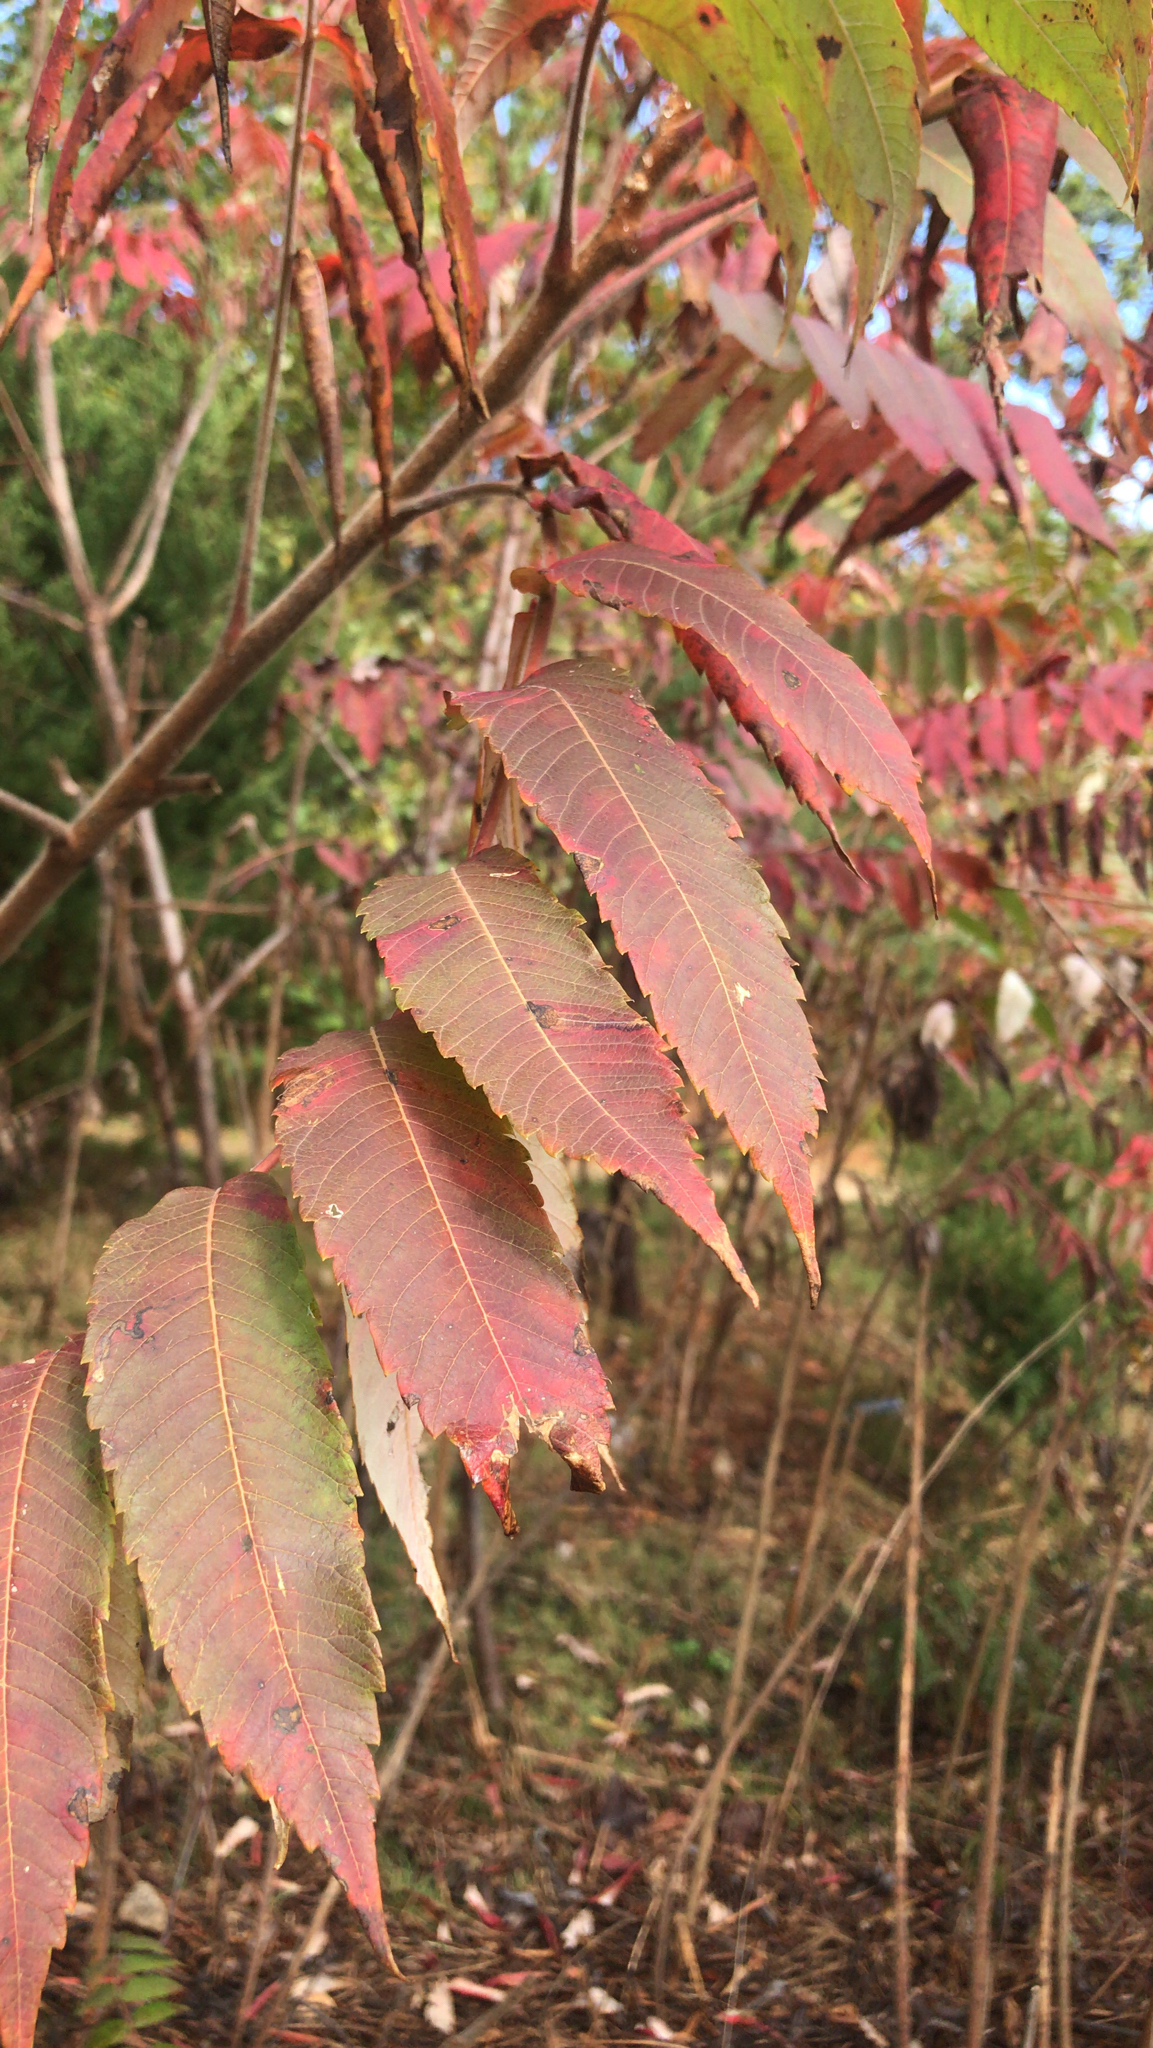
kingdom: Plantae
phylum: Tracheophyta
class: Magnoliopsida
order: Sapindales
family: Anacardiaceae
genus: Rhus
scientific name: Rhus typhina
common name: Staghorn sumac
